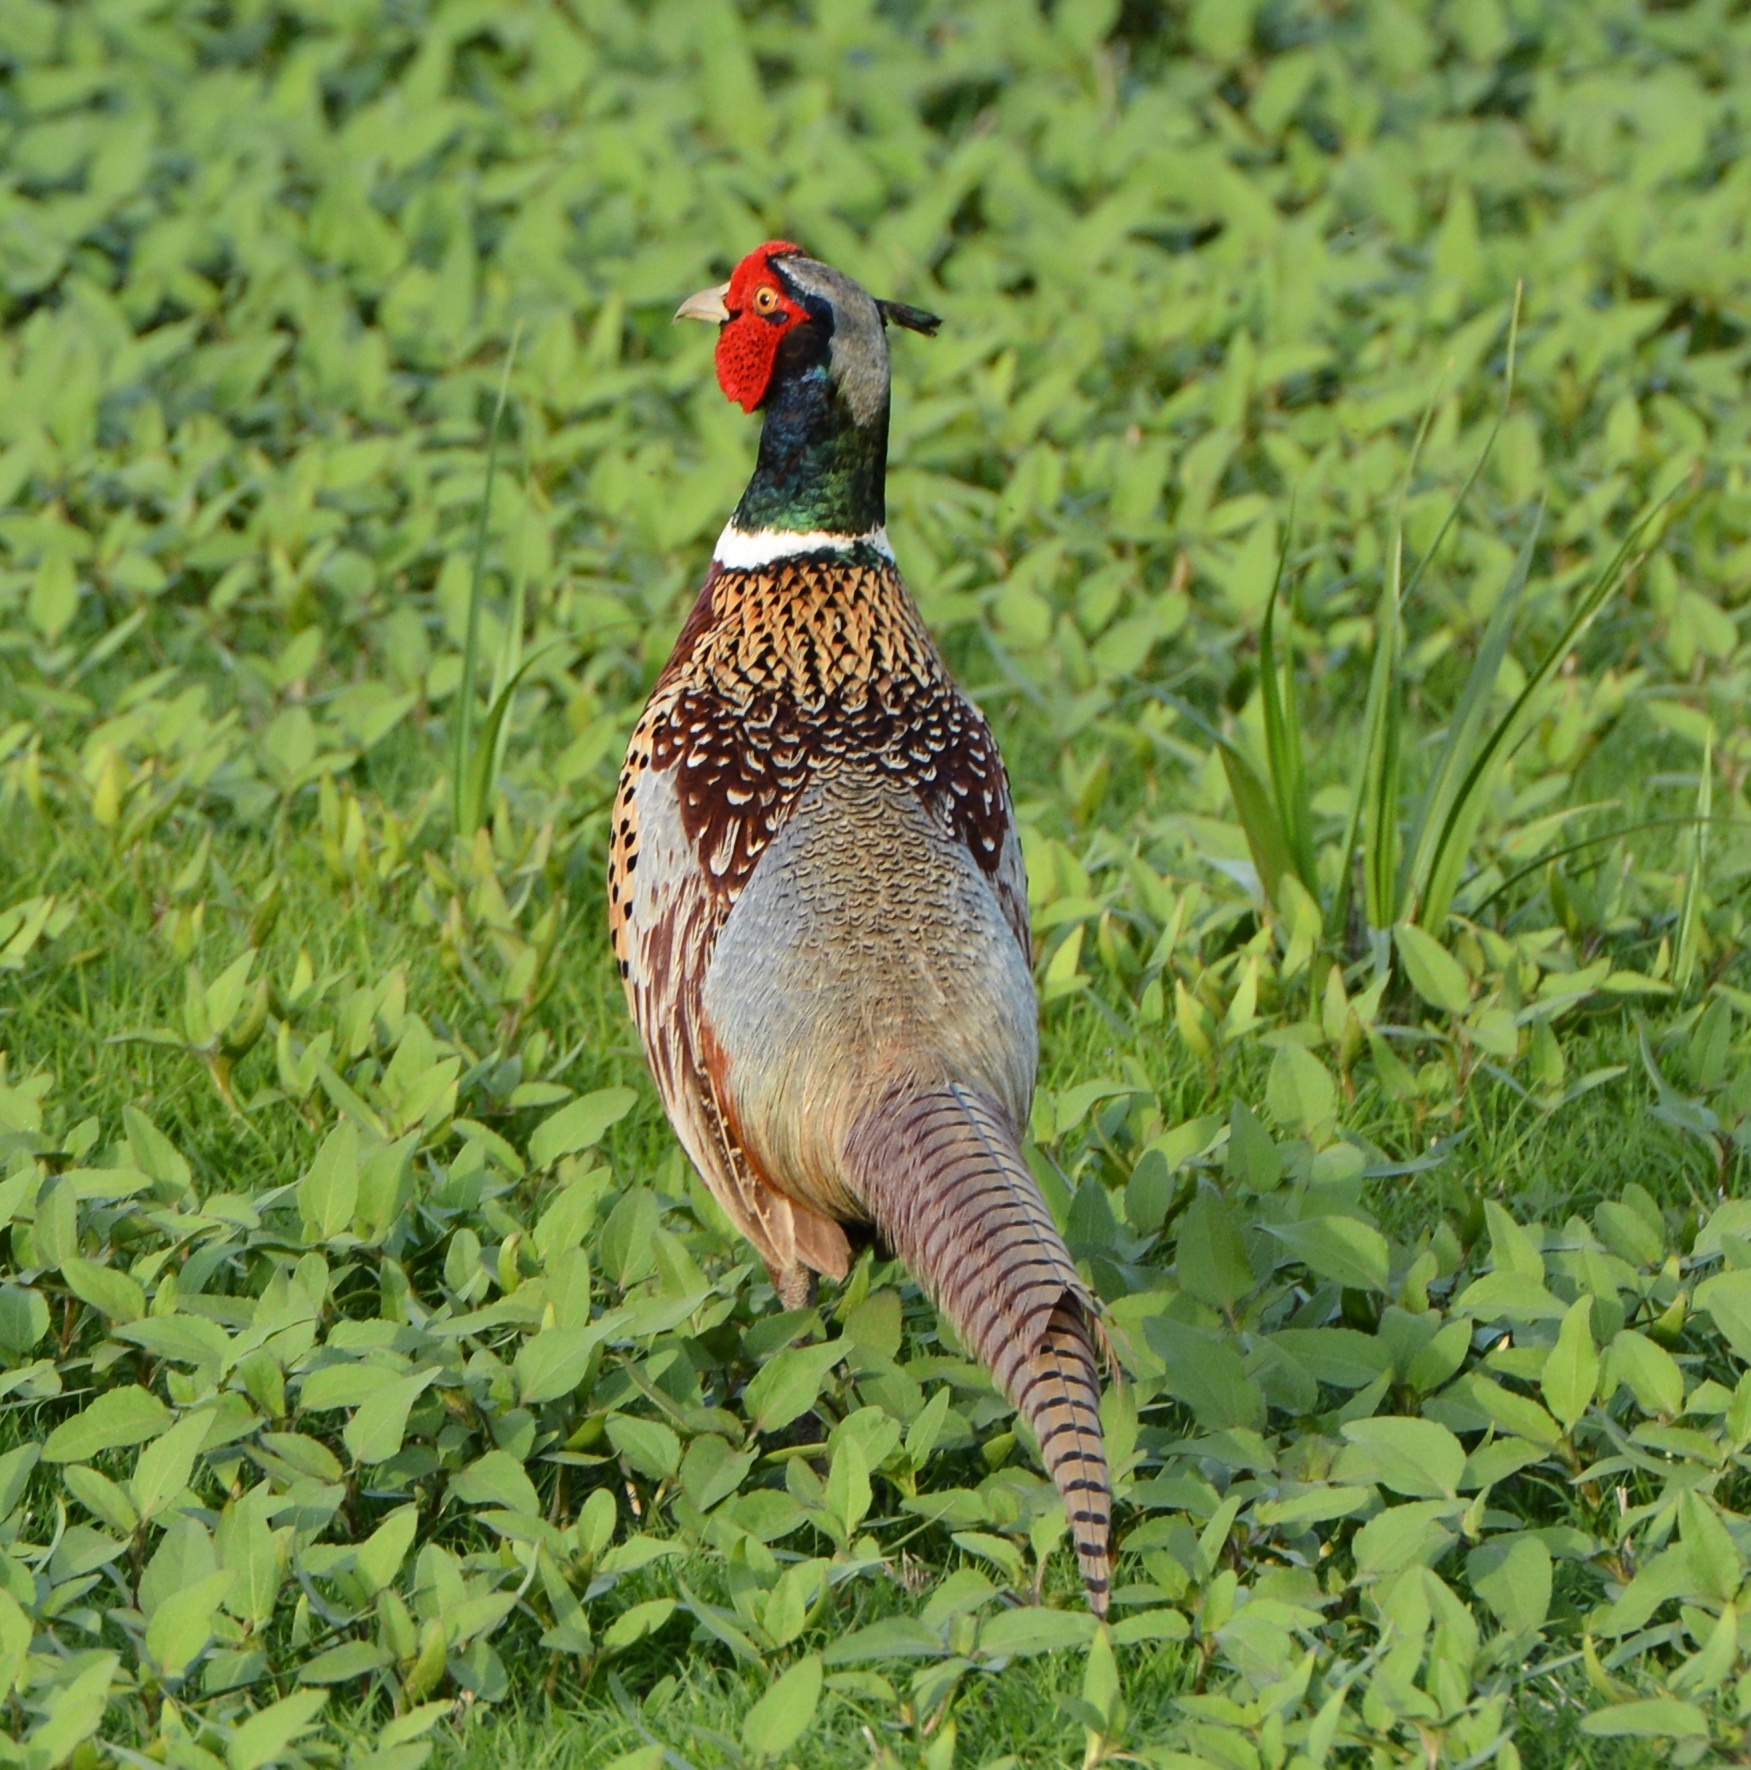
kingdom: Animalia
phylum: Chordata
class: Aves
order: Galliformes
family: Phasianidae
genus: Phasianus
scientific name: Phasianus colchicus
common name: Common pheasant
